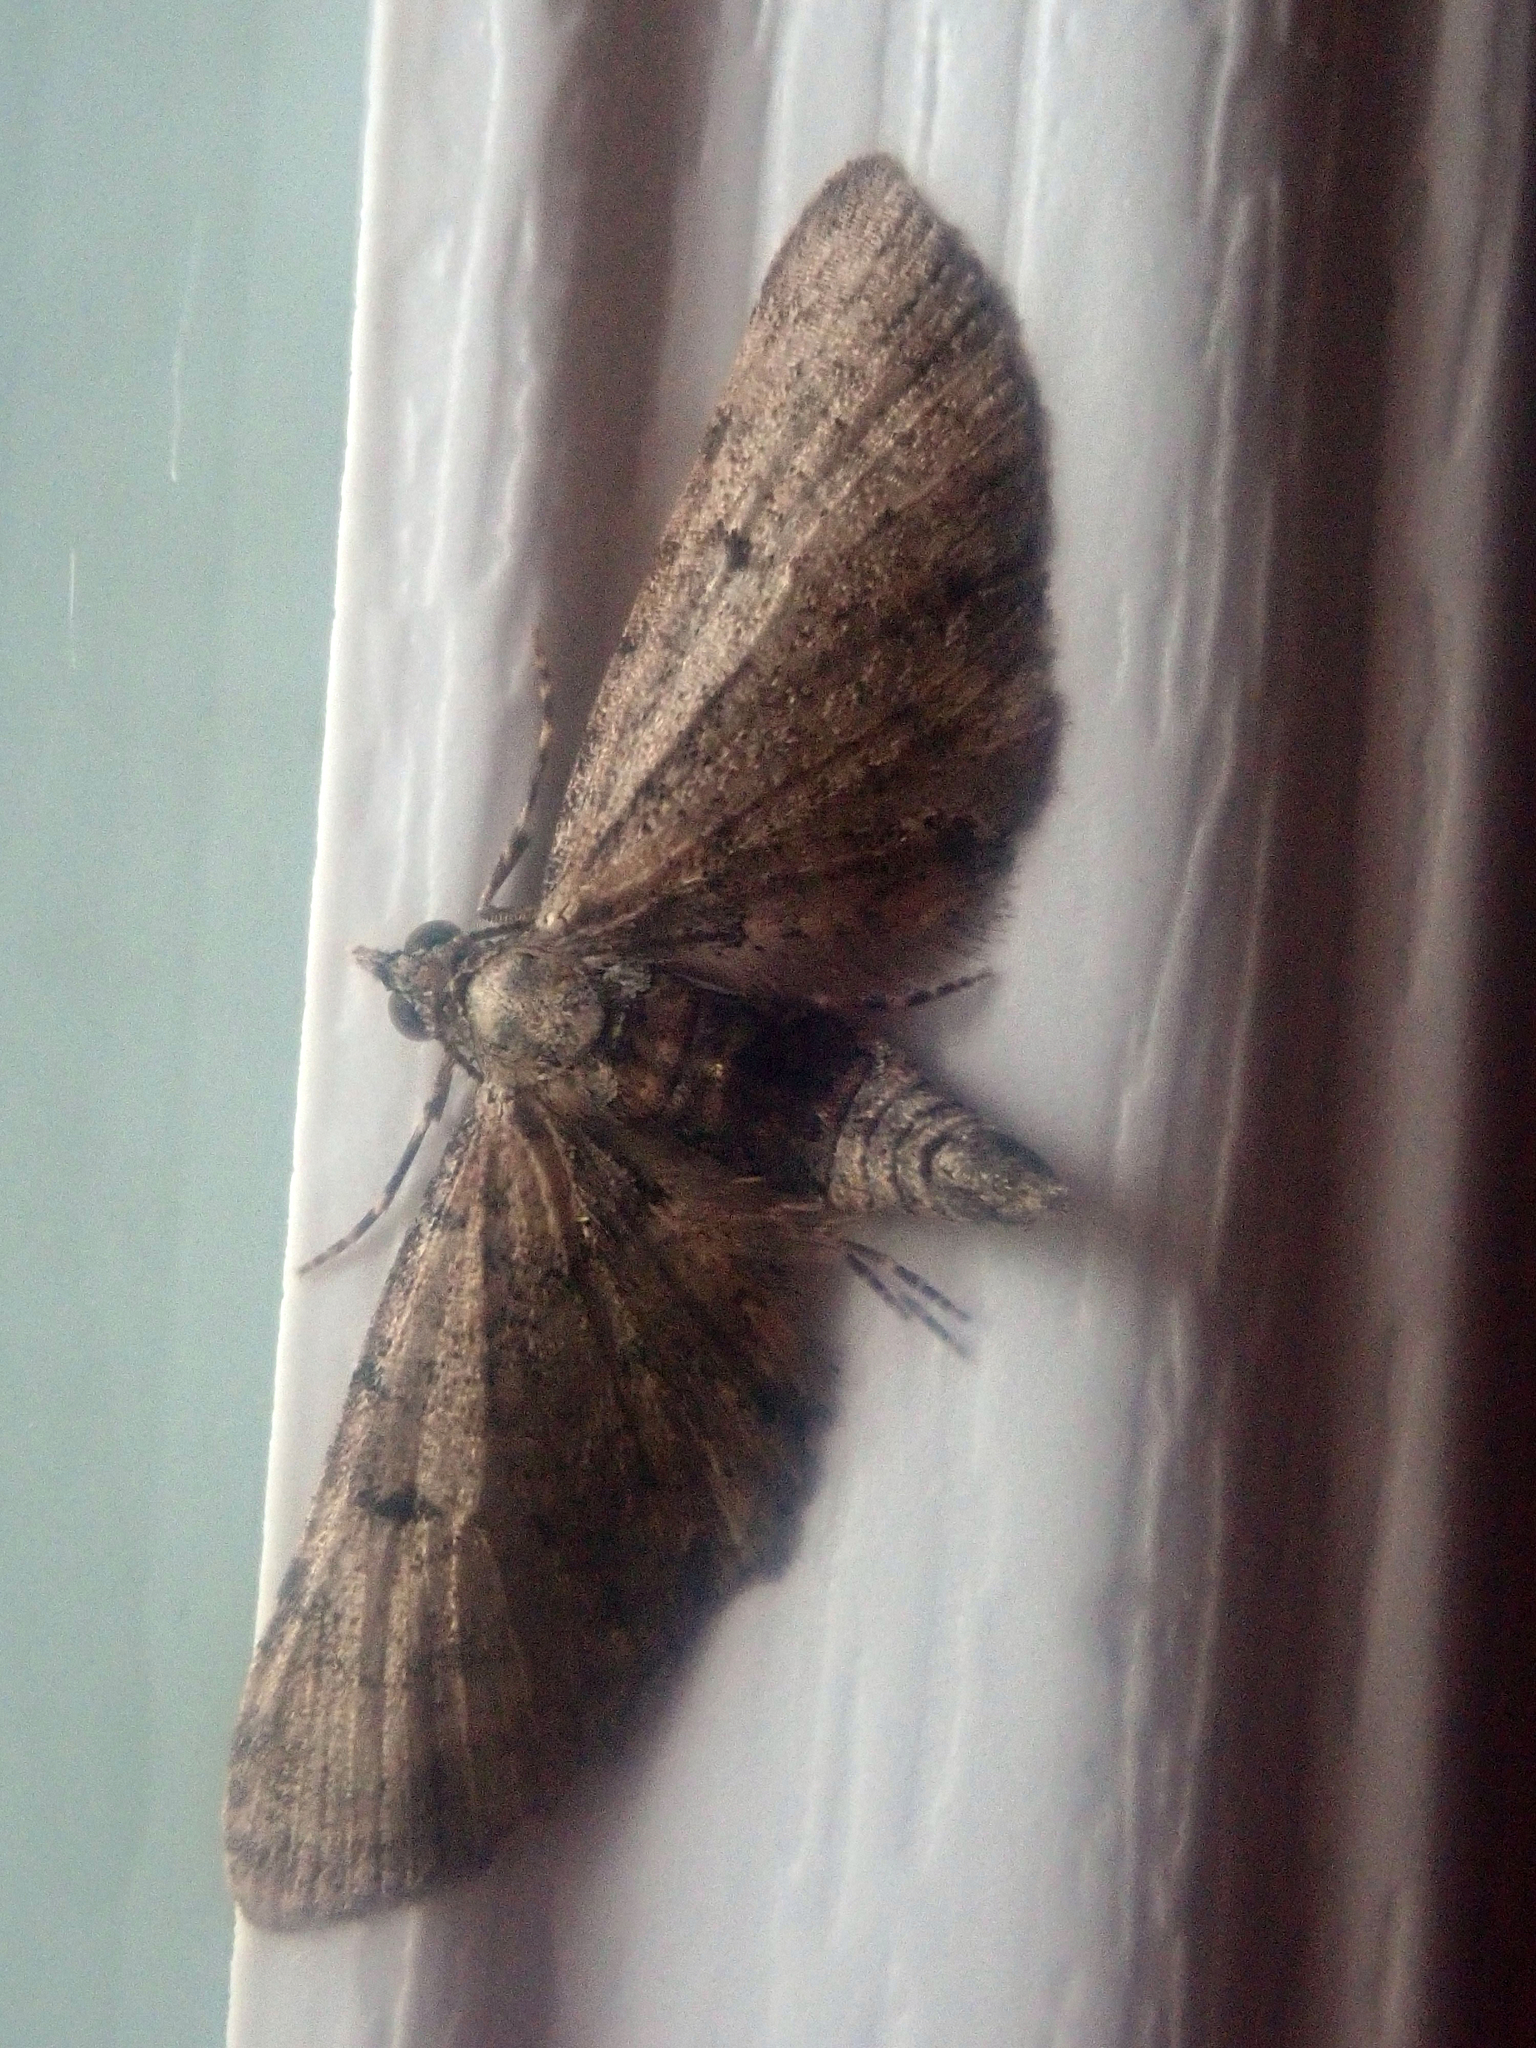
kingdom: Animalia
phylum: Arthropoda
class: Insecta
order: Lepidoptera
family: Geometridae
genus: Eupithecia
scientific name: Eupithecia
